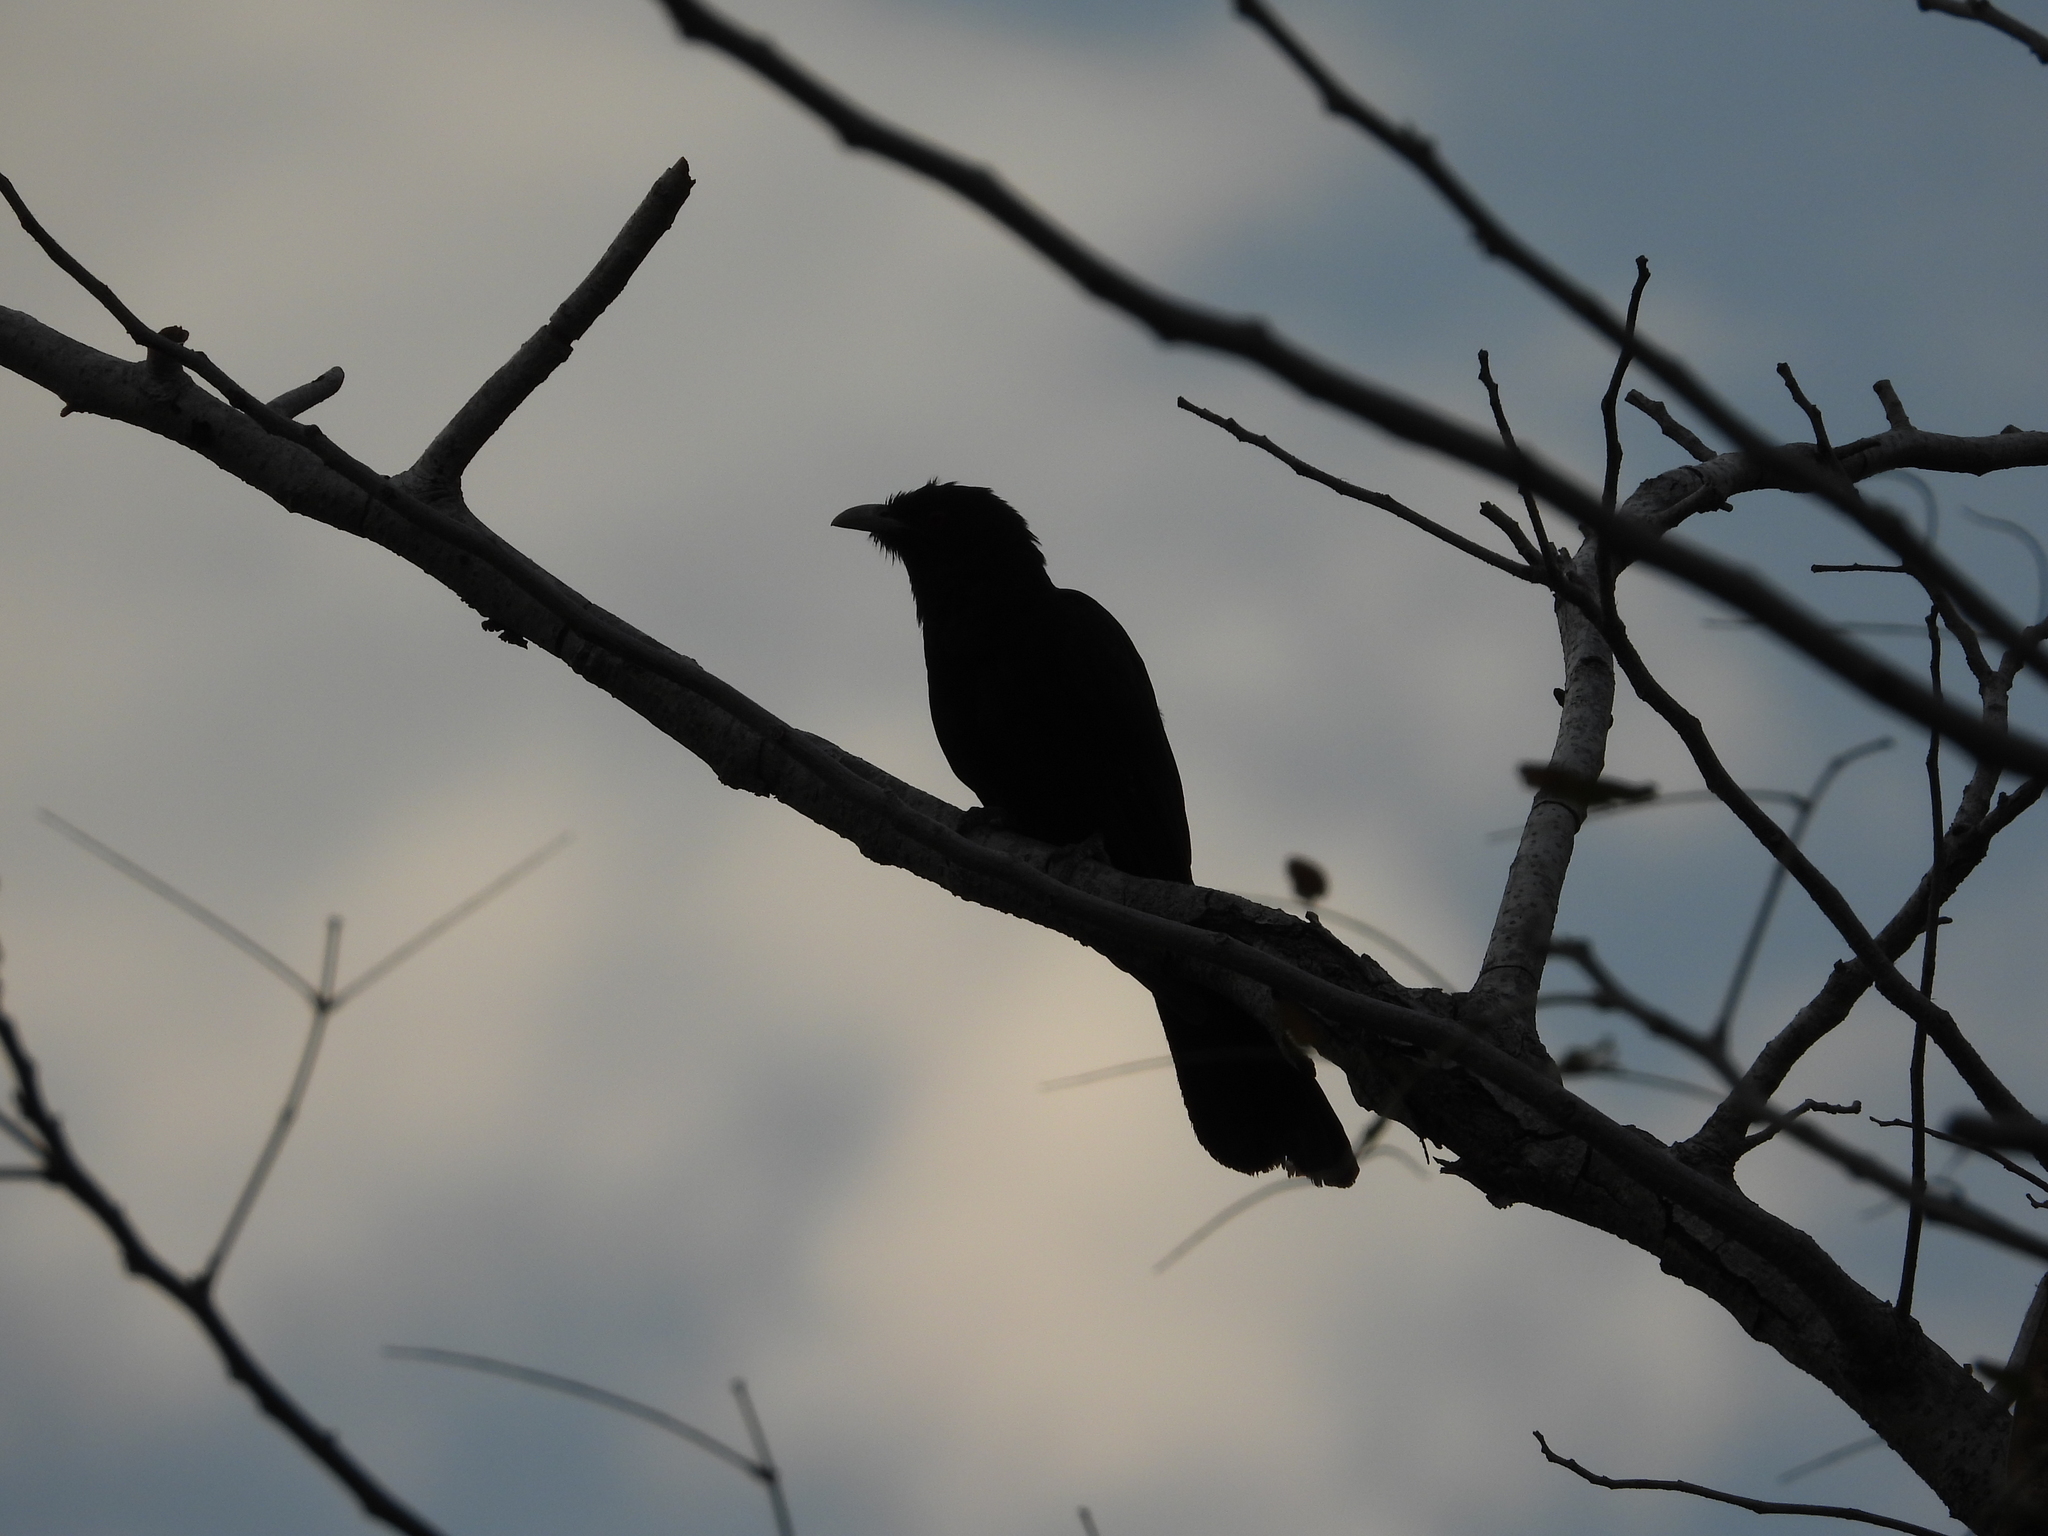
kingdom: Animalia
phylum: Chordata
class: Aves
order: Cuculiformes
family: Cuculidae
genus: Eudynamys
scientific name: Eudynamys scolopaceus
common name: Asian koel
